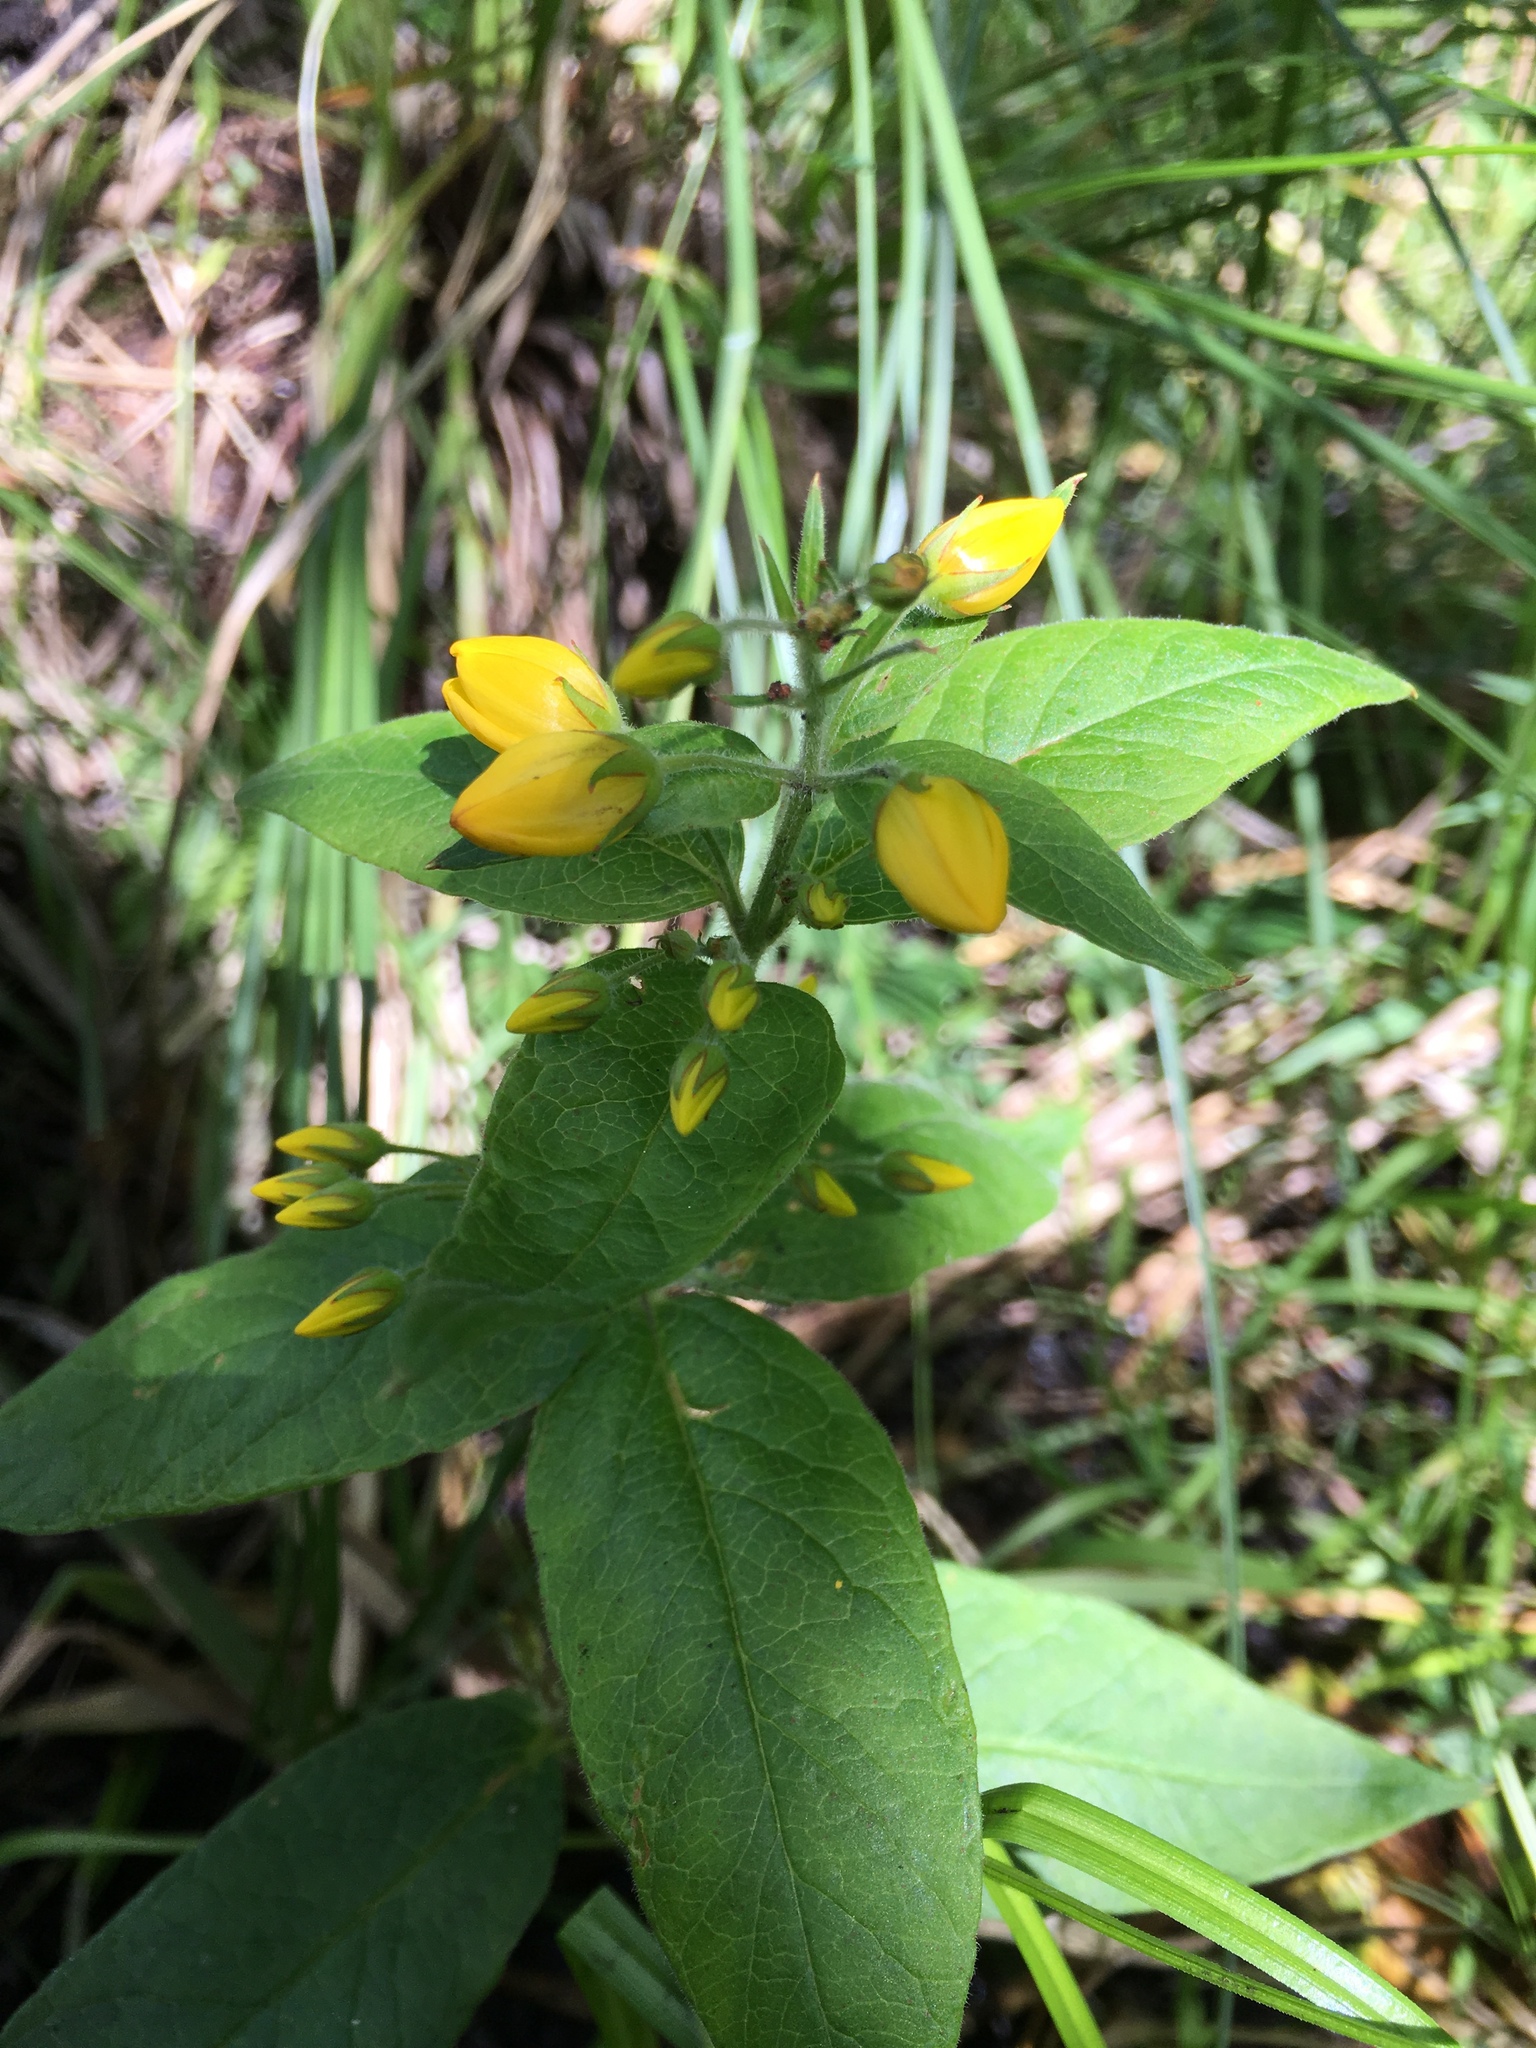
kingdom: Plantae
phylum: Tracheophyta
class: Magnoliopsida
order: Ericales
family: Primulaceae
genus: Lysimachia
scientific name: Lysimachia vulgaris
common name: Yellow loosestrife
